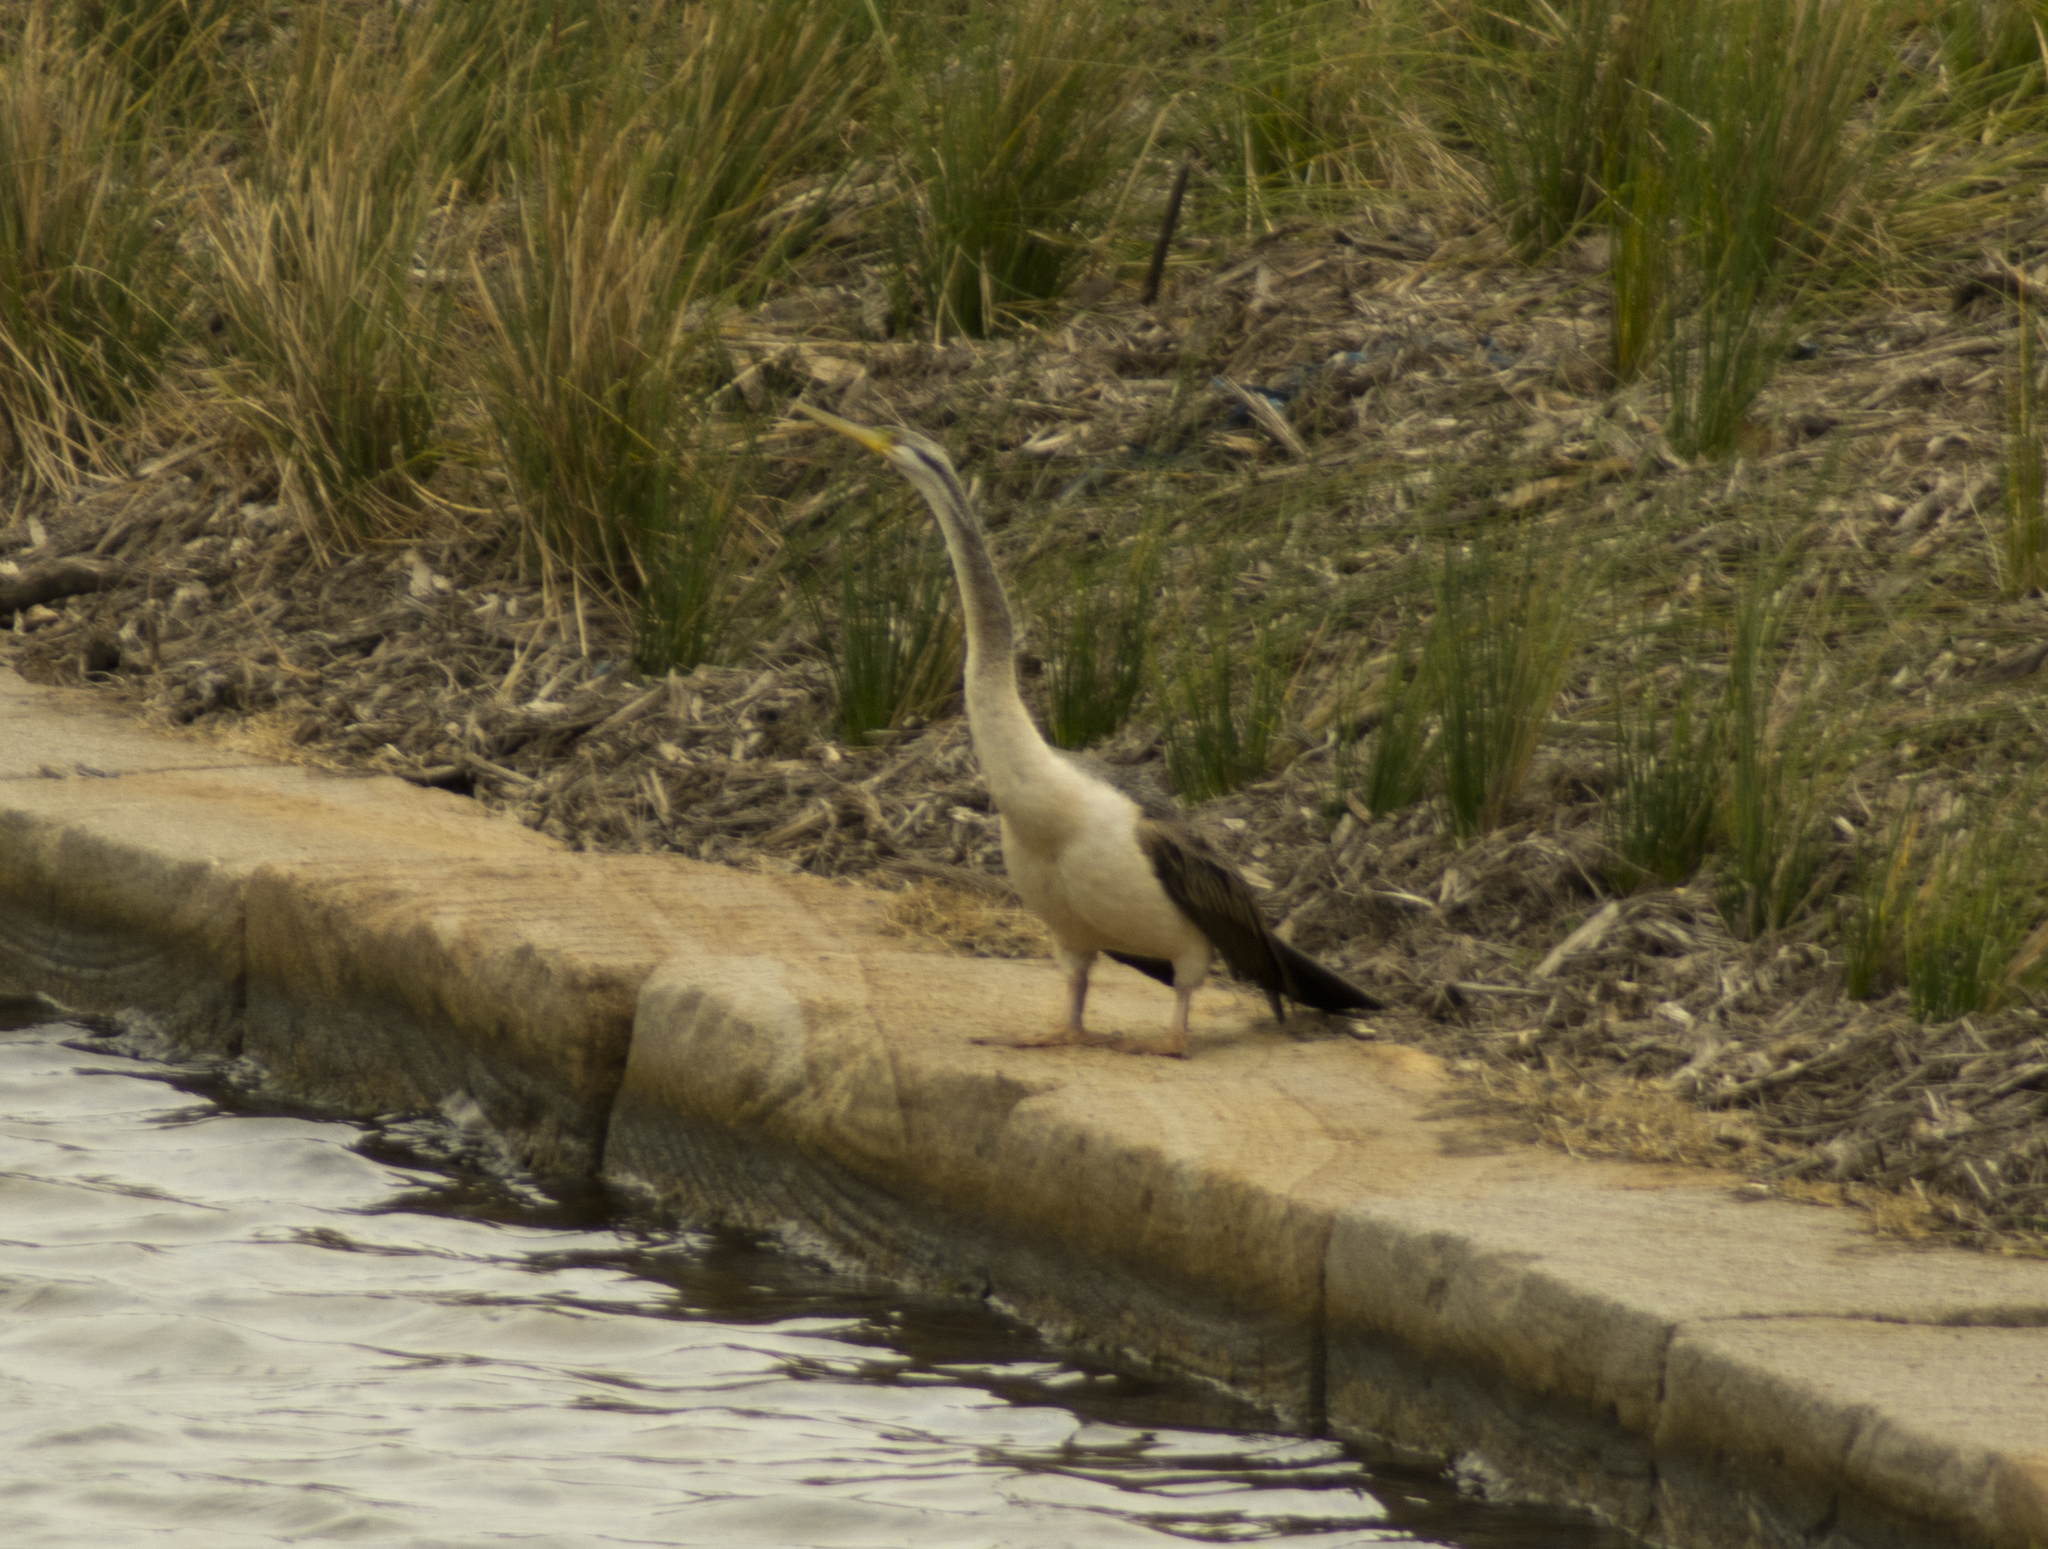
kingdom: Animalia
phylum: Chordata
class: Aves
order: Suliformes
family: Anhingidae
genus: Anhinga
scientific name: Anhinga novaehollandiae
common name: Australasian darter
